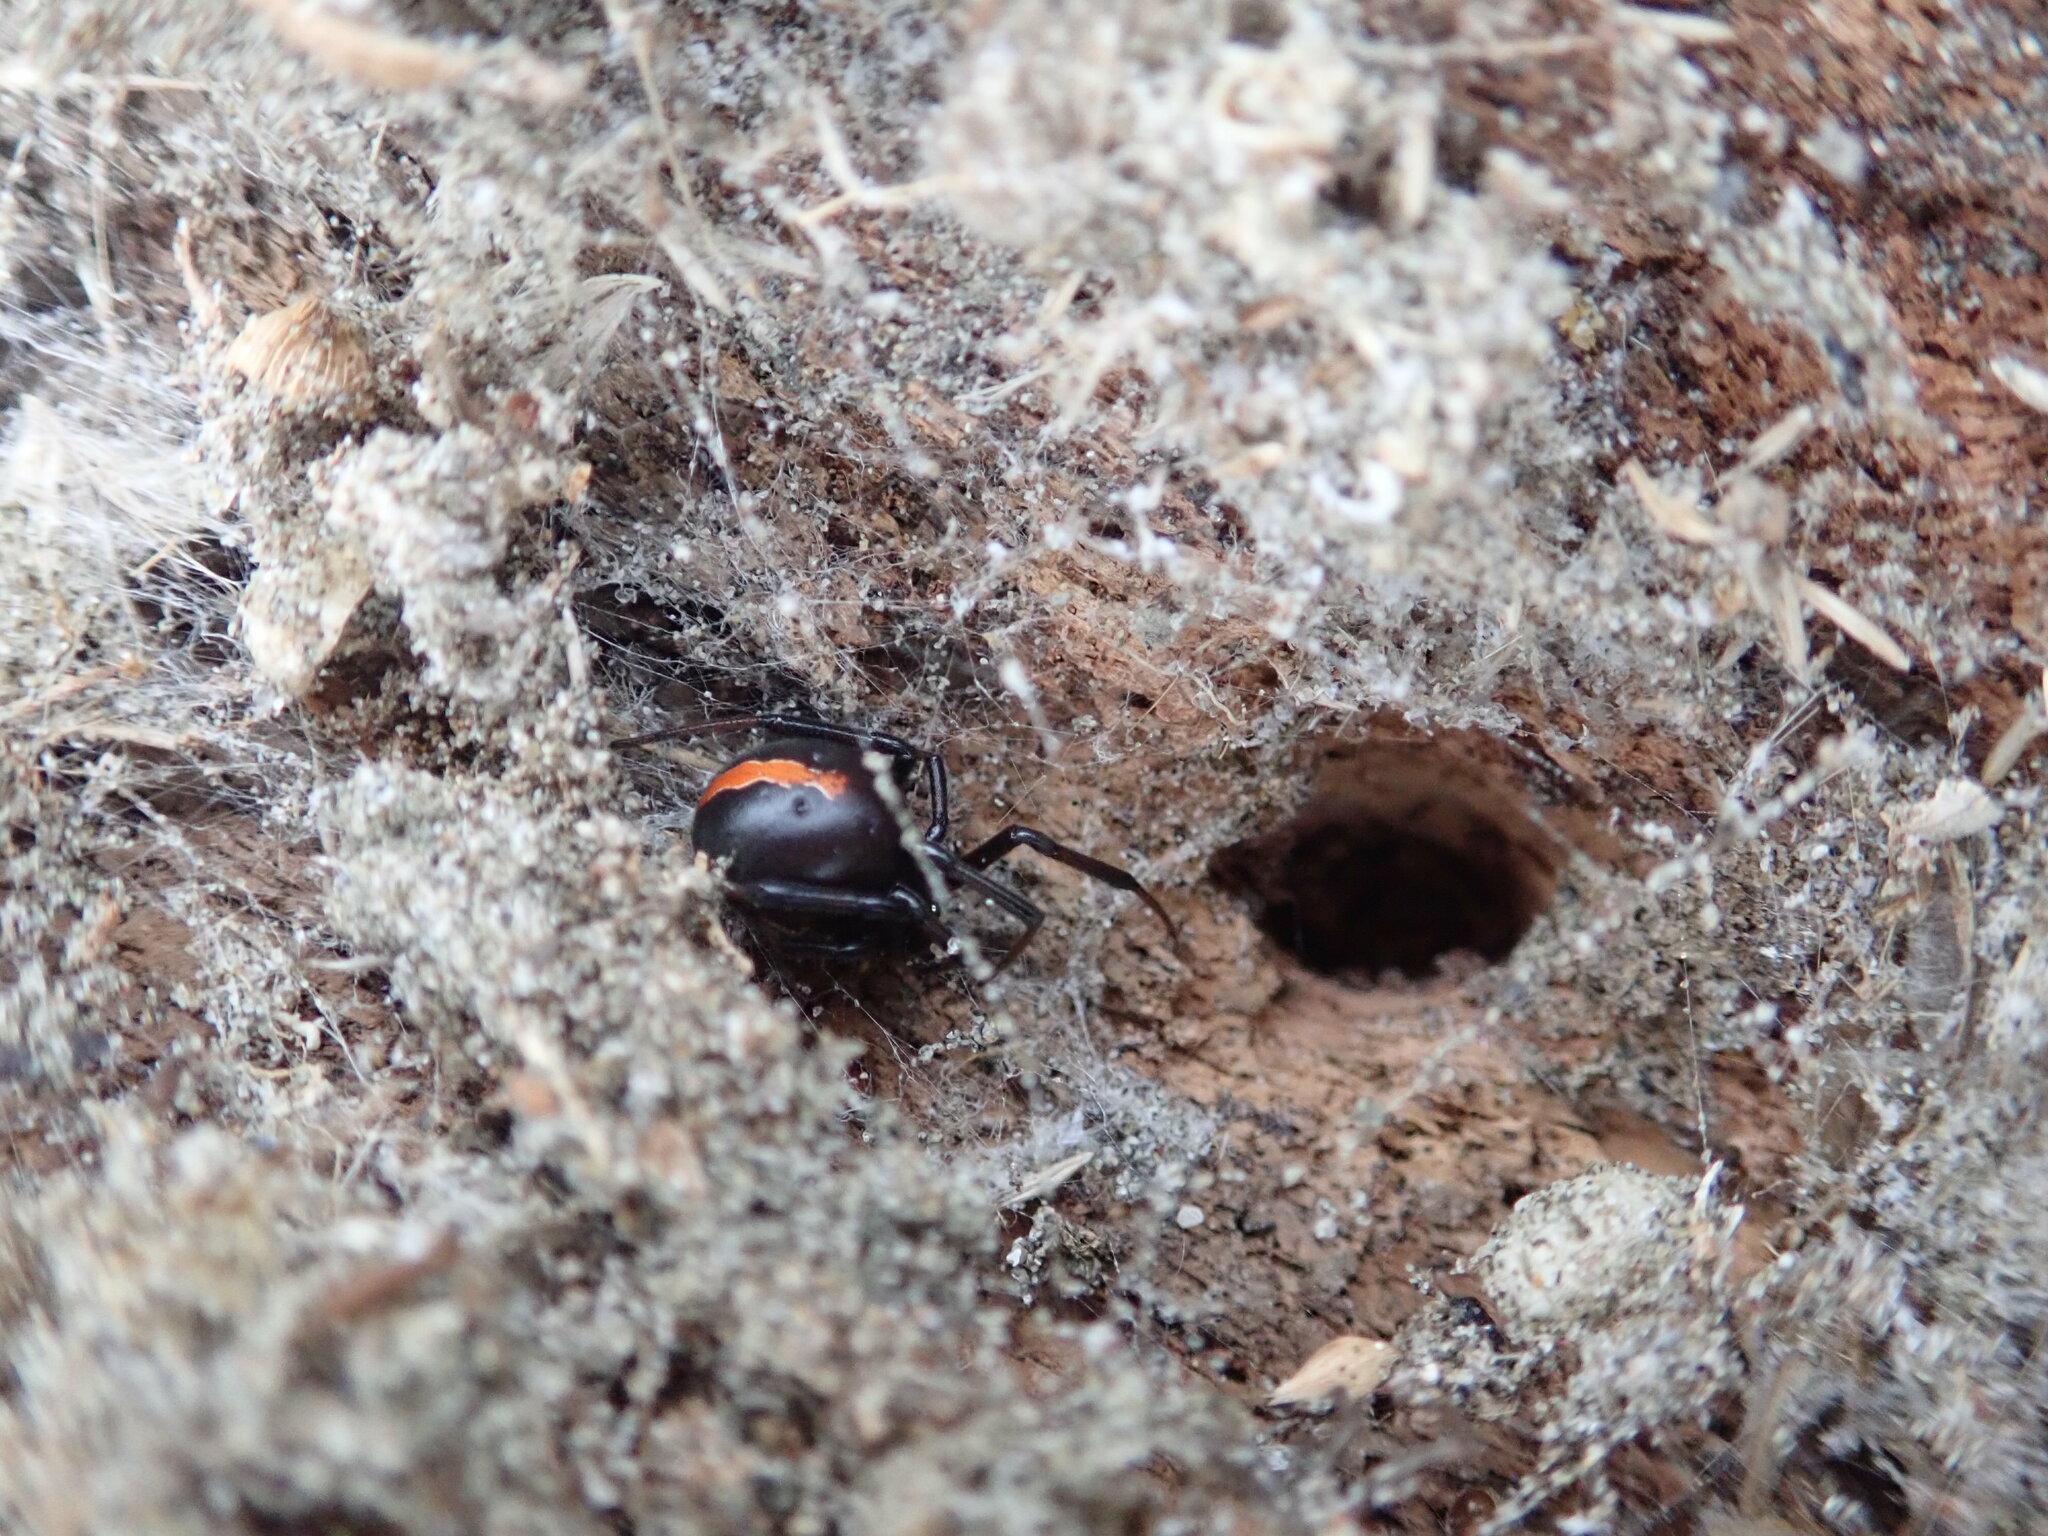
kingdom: Animalia
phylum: Arthropoda
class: Arachnida
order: Araneae
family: Theridiidae
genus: Latrodectus
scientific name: Latrodectus katipo
